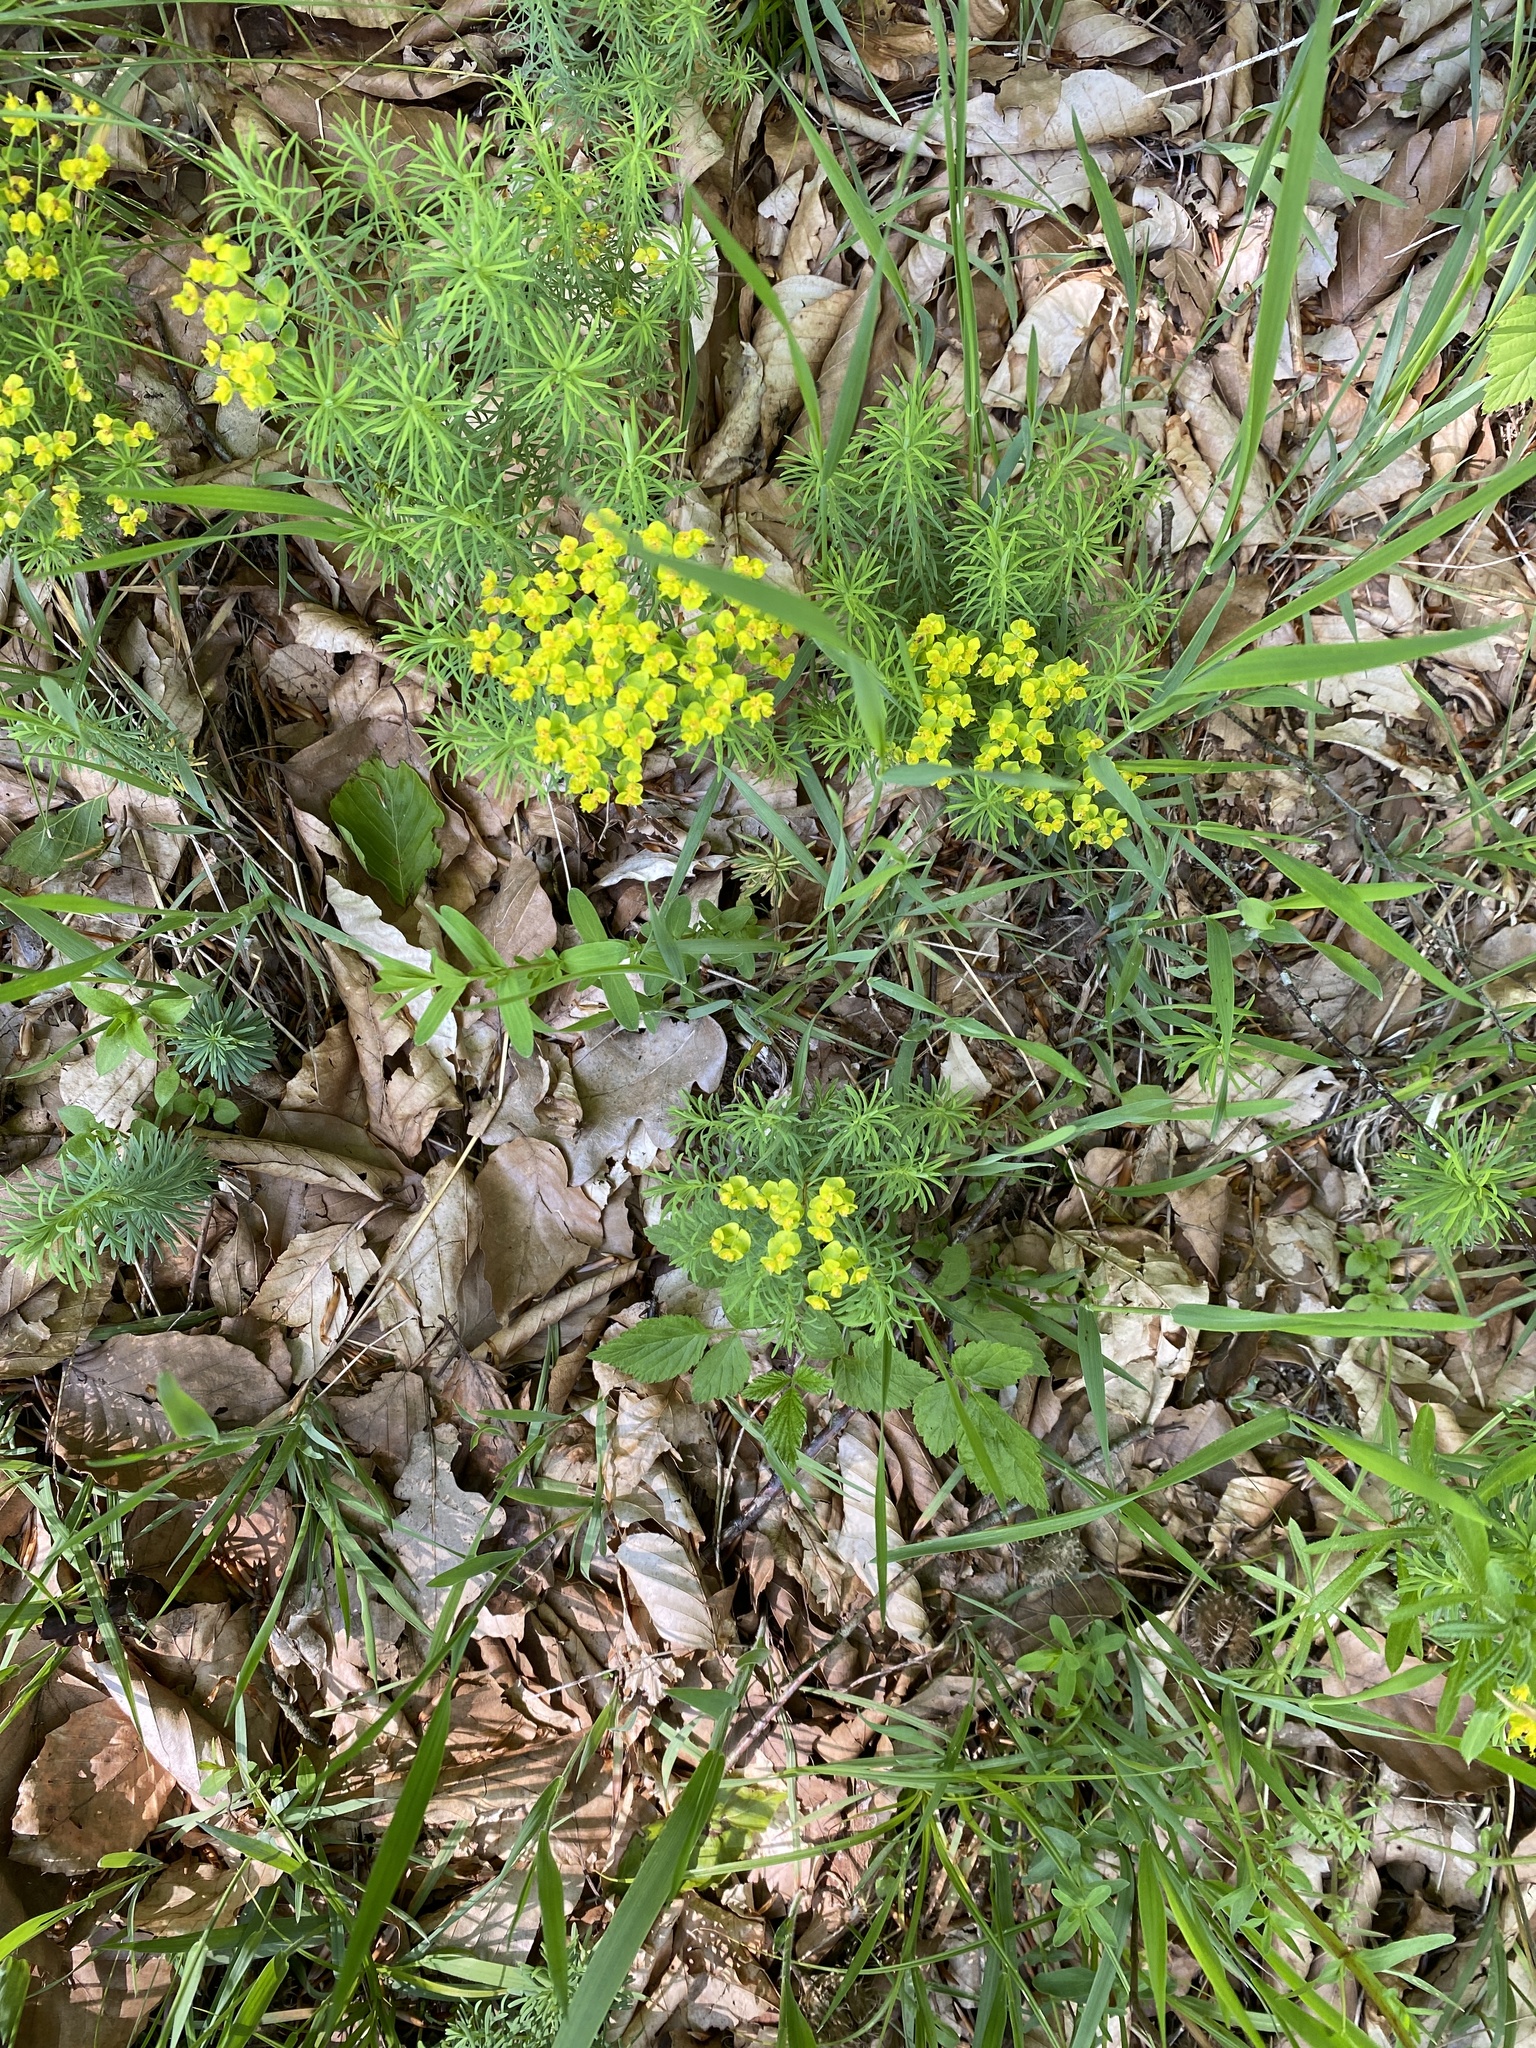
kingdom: Plantae
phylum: Tracheophyta
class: Magnoliopsida
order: Malpighiales
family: Euphorbiaceae
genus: Euphorbia
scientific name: Euphorbia cyparissias
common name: Cypress spurge
